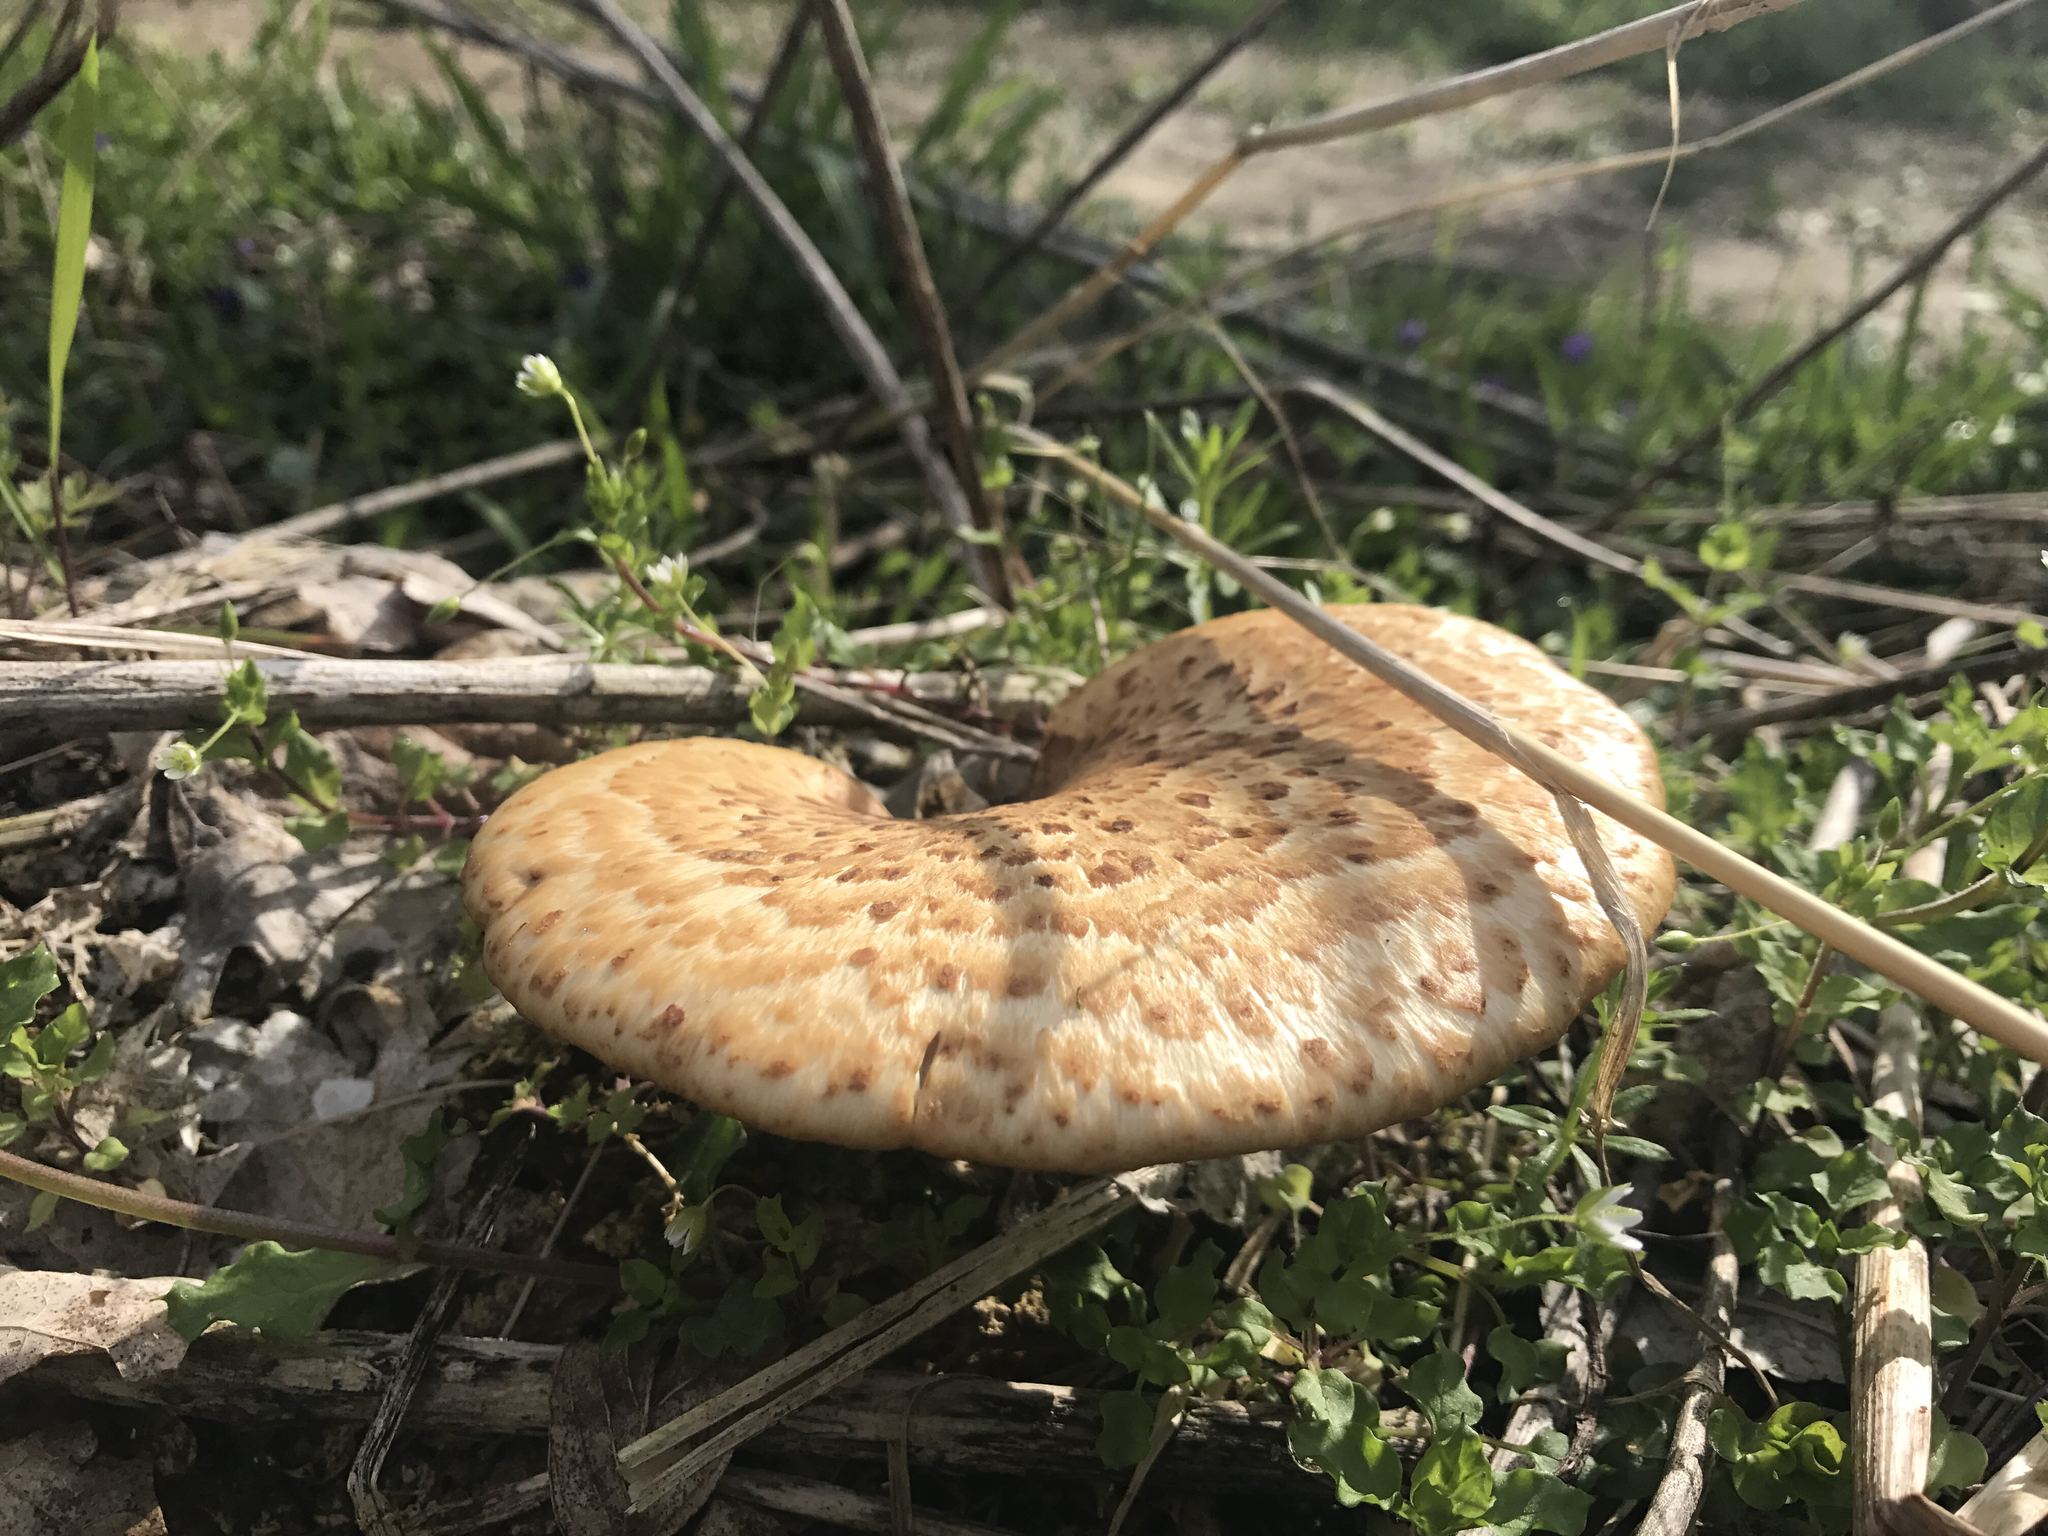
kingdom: Fungi
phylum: Basidiomycota
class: Agaricomycetes
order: Polyporales
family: Polyporaceae
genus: Cerioporus
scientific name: Cerioporus squamosus
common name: Dryad's saddle
